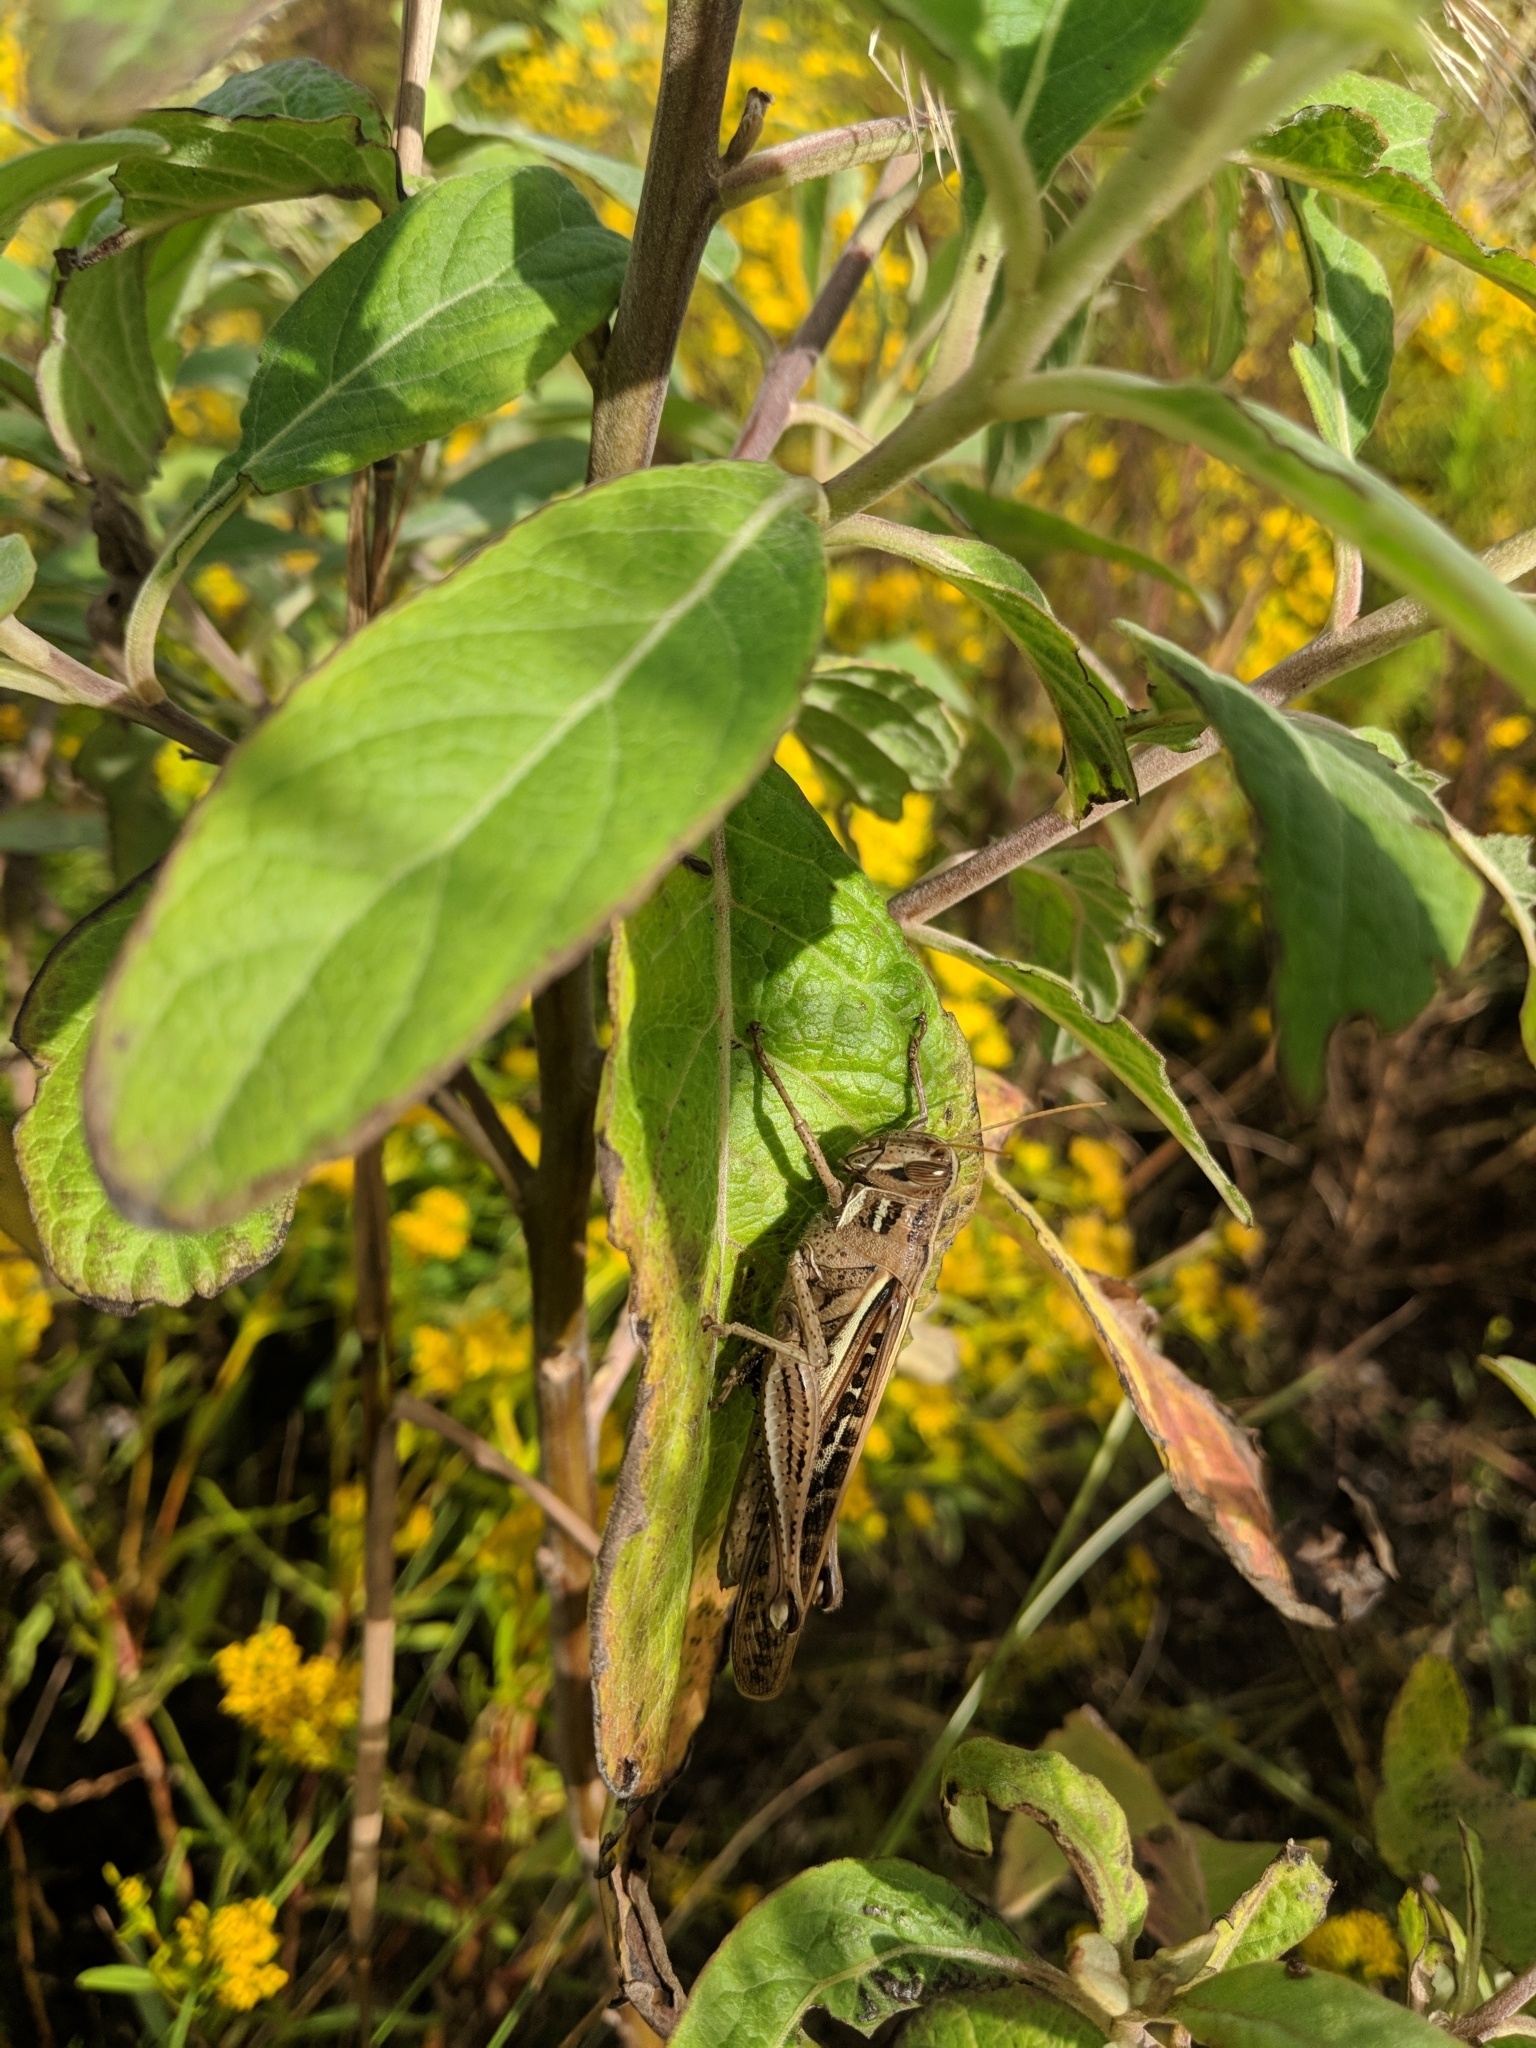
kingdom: Animalia
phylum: Arthropoda
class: Insecta
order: Orthoptera
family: Acrididae
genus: Schistocerca
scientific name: Schistocerca americana
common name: American bird locust
